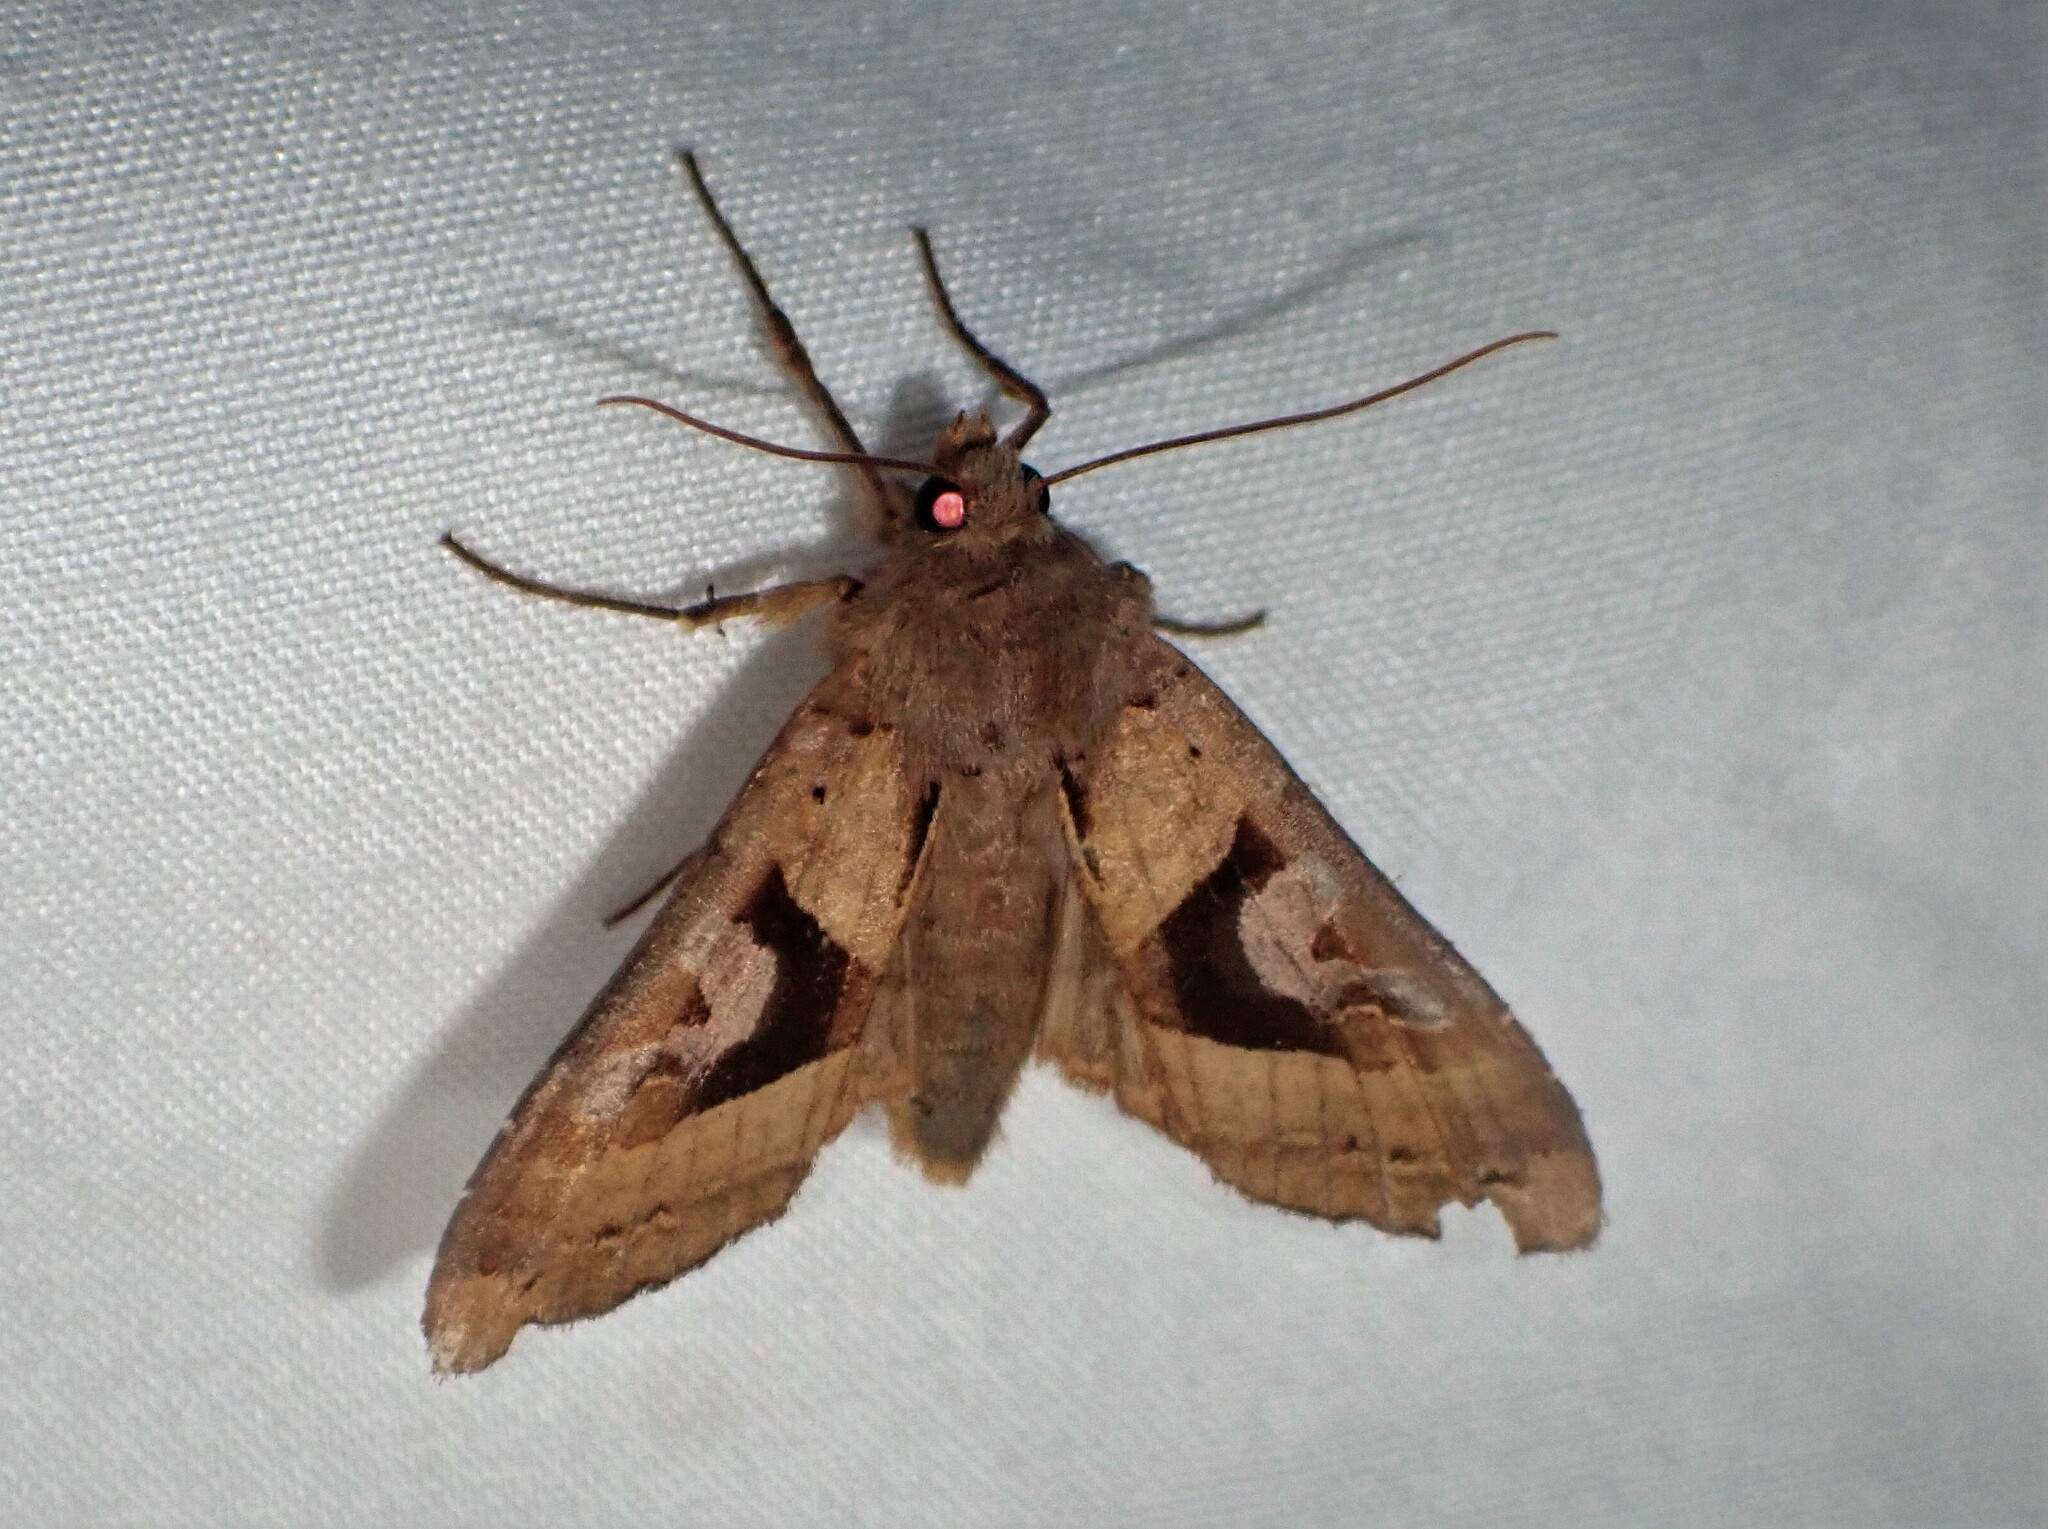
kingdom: Animalia
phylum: Arthropoda
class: Insecta
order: Lepidoptera
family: Noctuidae
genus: Phlogophora
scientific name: Phlogophora interrupta
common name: Owlet moth
